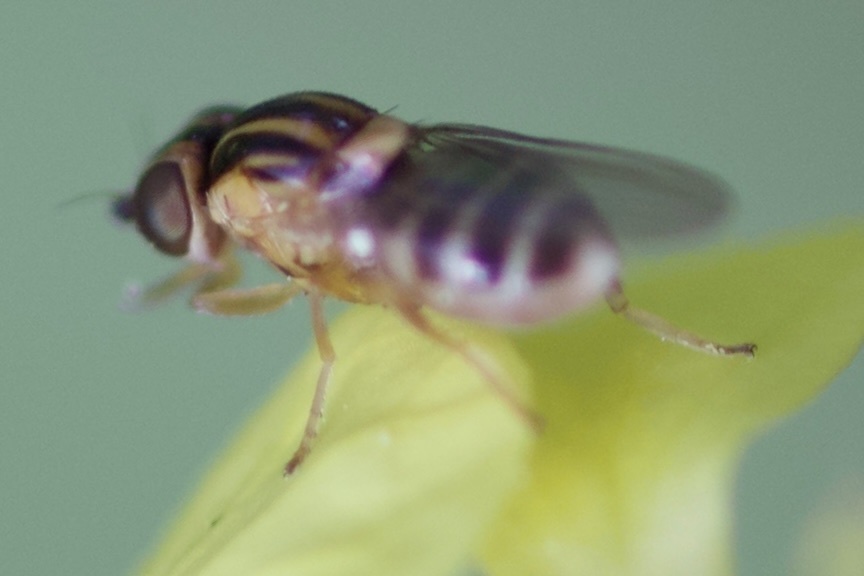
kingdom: Animalia
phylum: Arthropoda
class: Insecta
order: Diptera
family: Chloropidae
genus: Thaumatomyia
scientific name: Thaumatomyia glabra
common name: Chloropid fly
